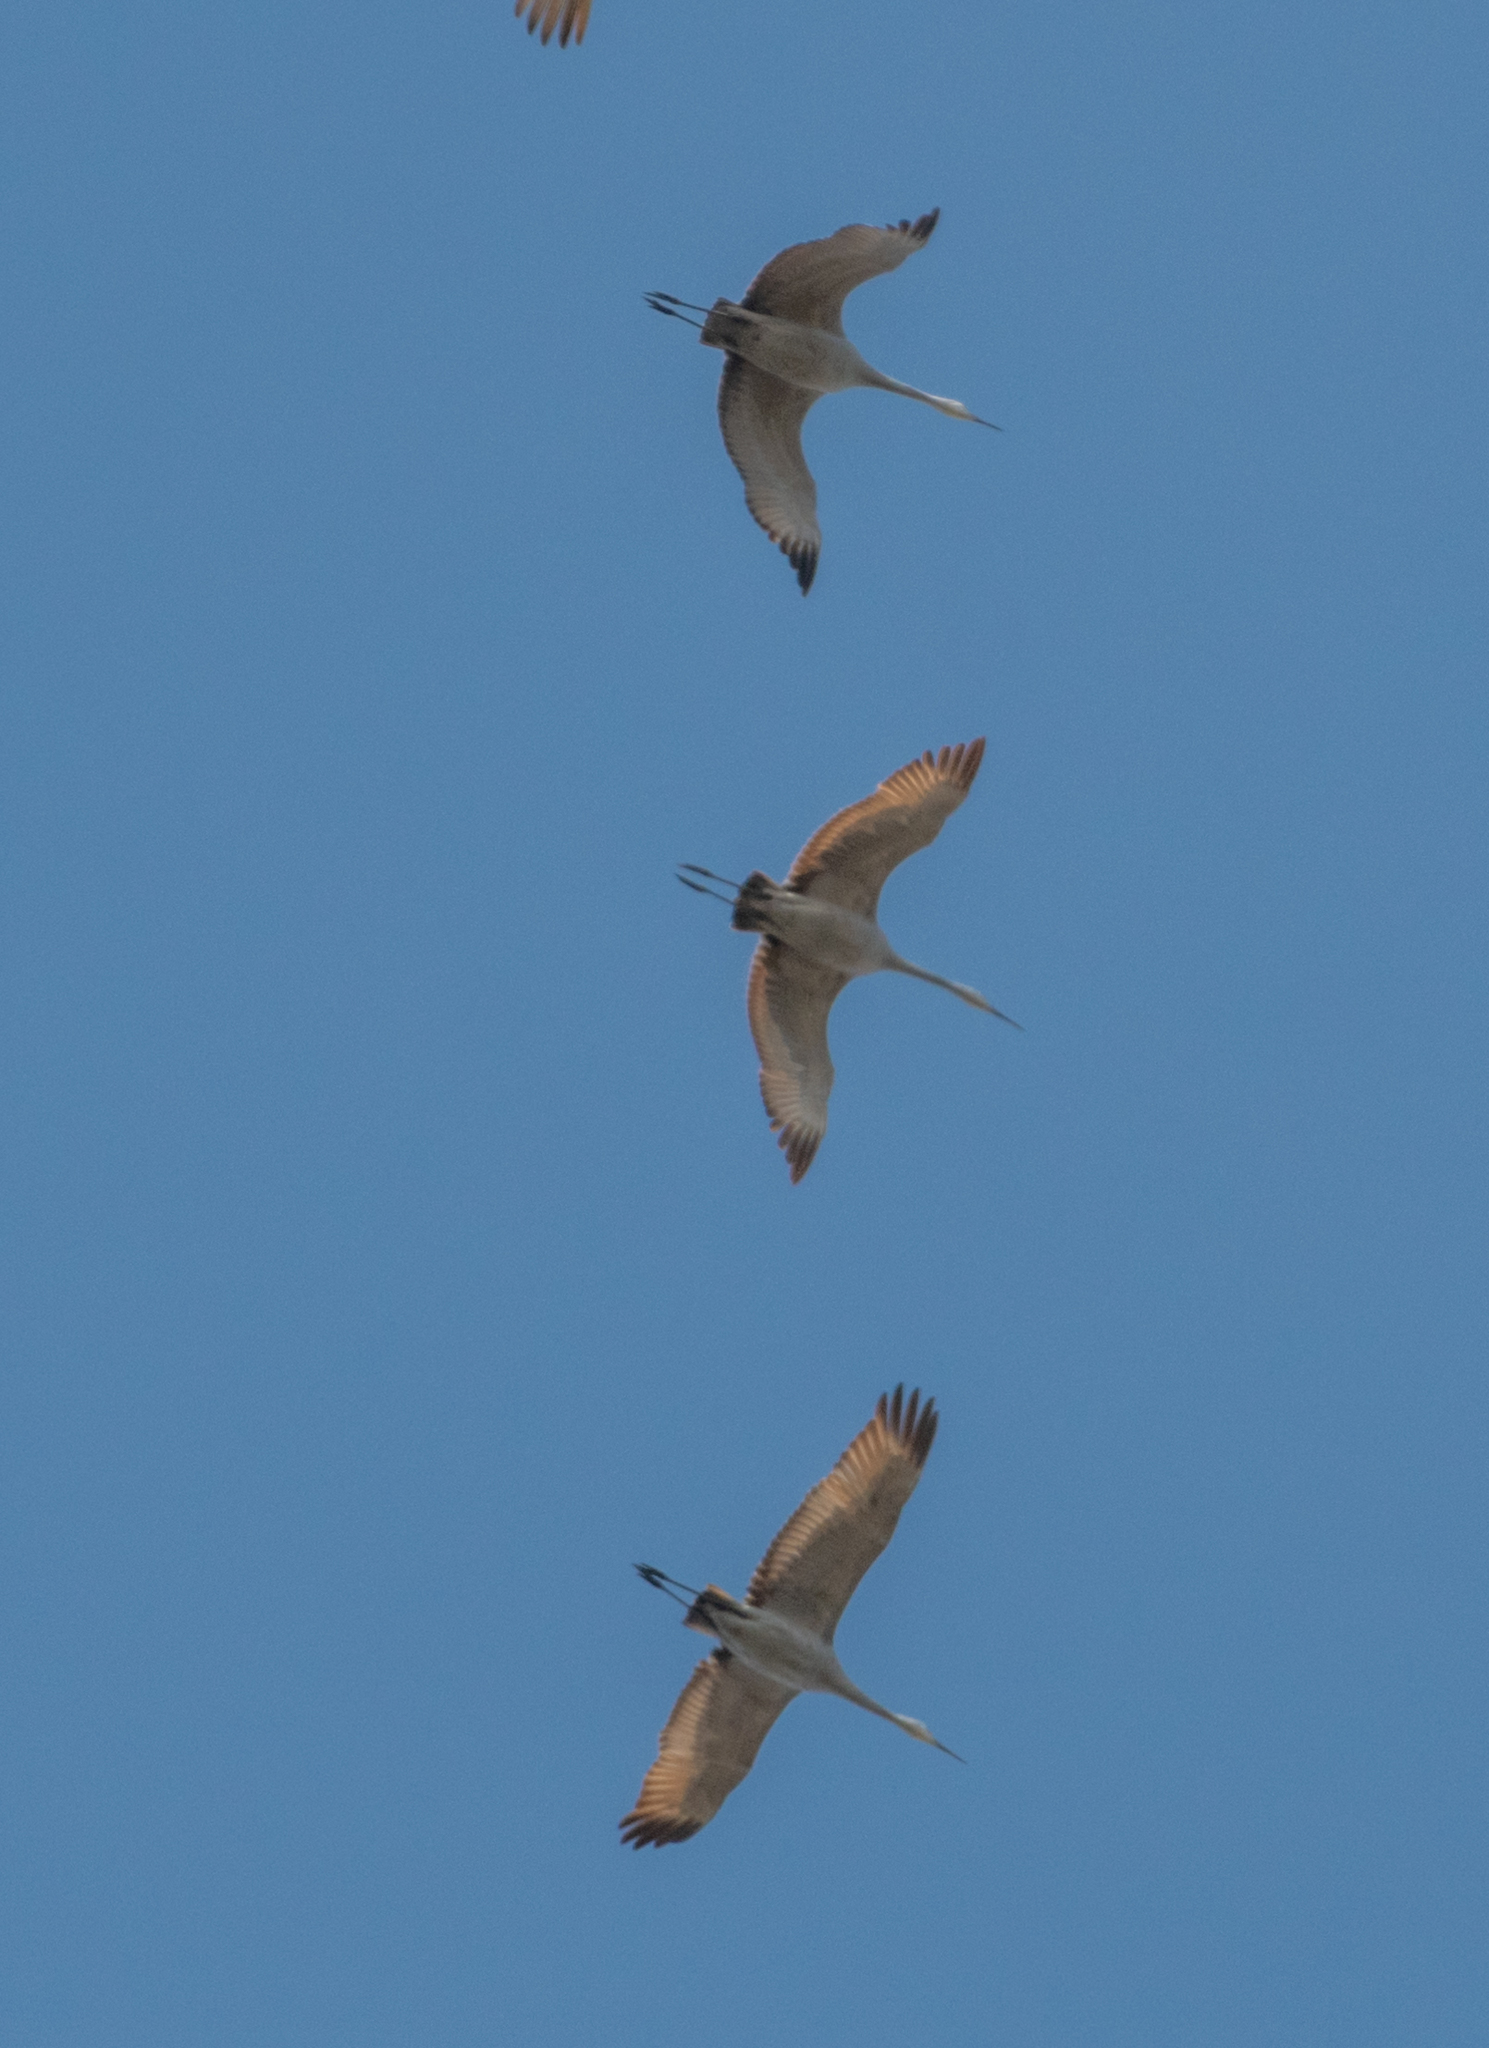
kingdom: Animalia
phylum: Chordata
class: Aves
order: Gruiformes
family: Gruidae
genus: Grus
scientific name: Grus canadensis
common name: Sandhill crane
